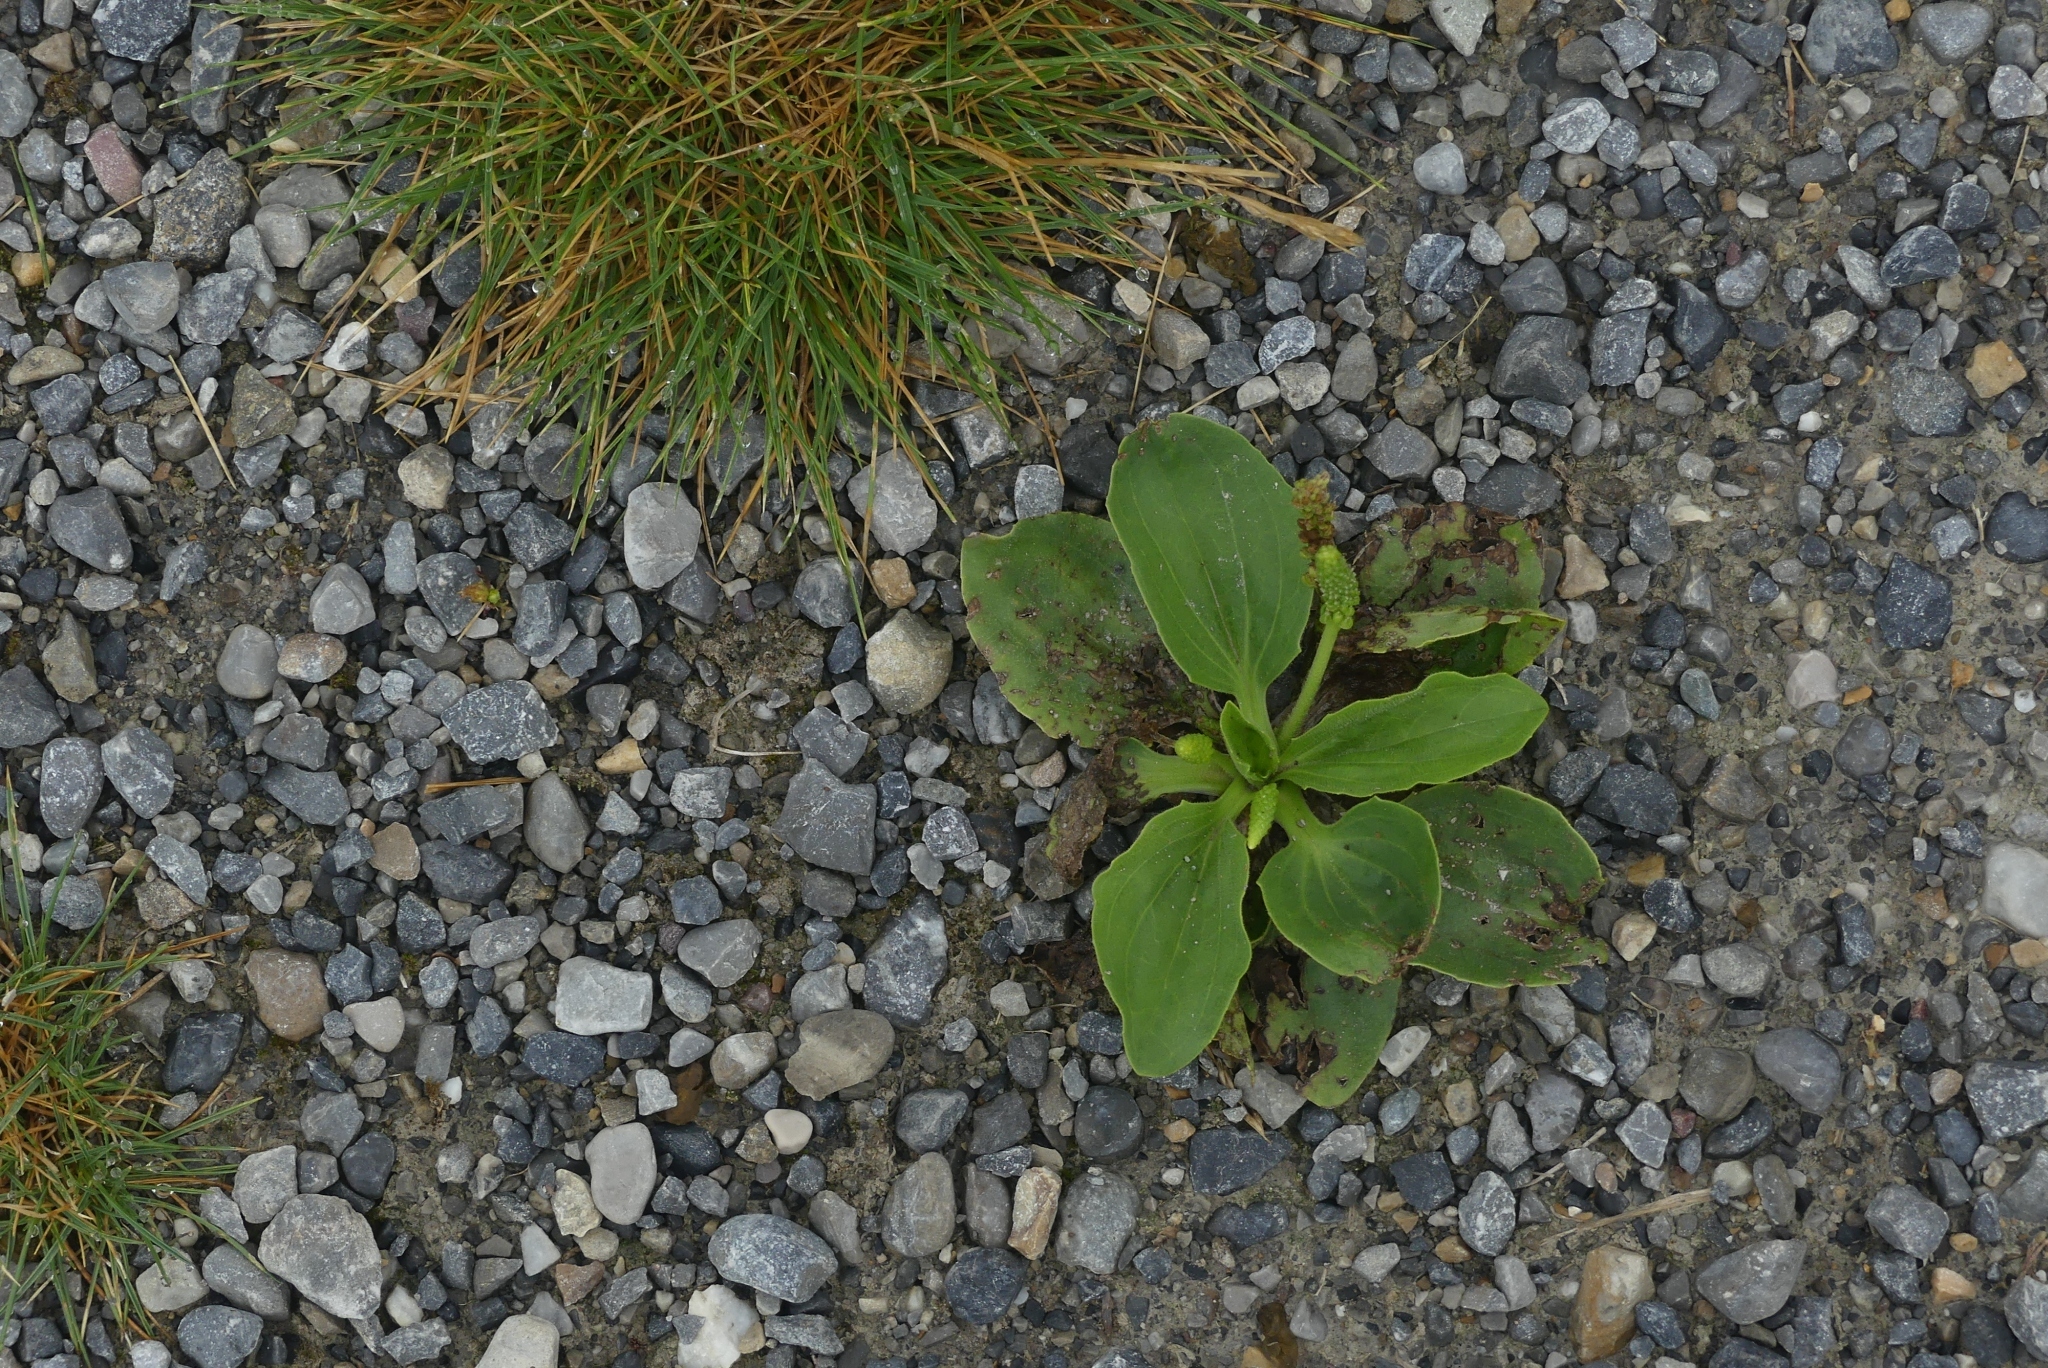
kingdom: Plantae
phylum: Tracheophyta
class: Magnoliopsida
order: Lamiales
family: Plantaginaceae
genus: Plantago
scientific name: Plantago major
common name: Common plantain
